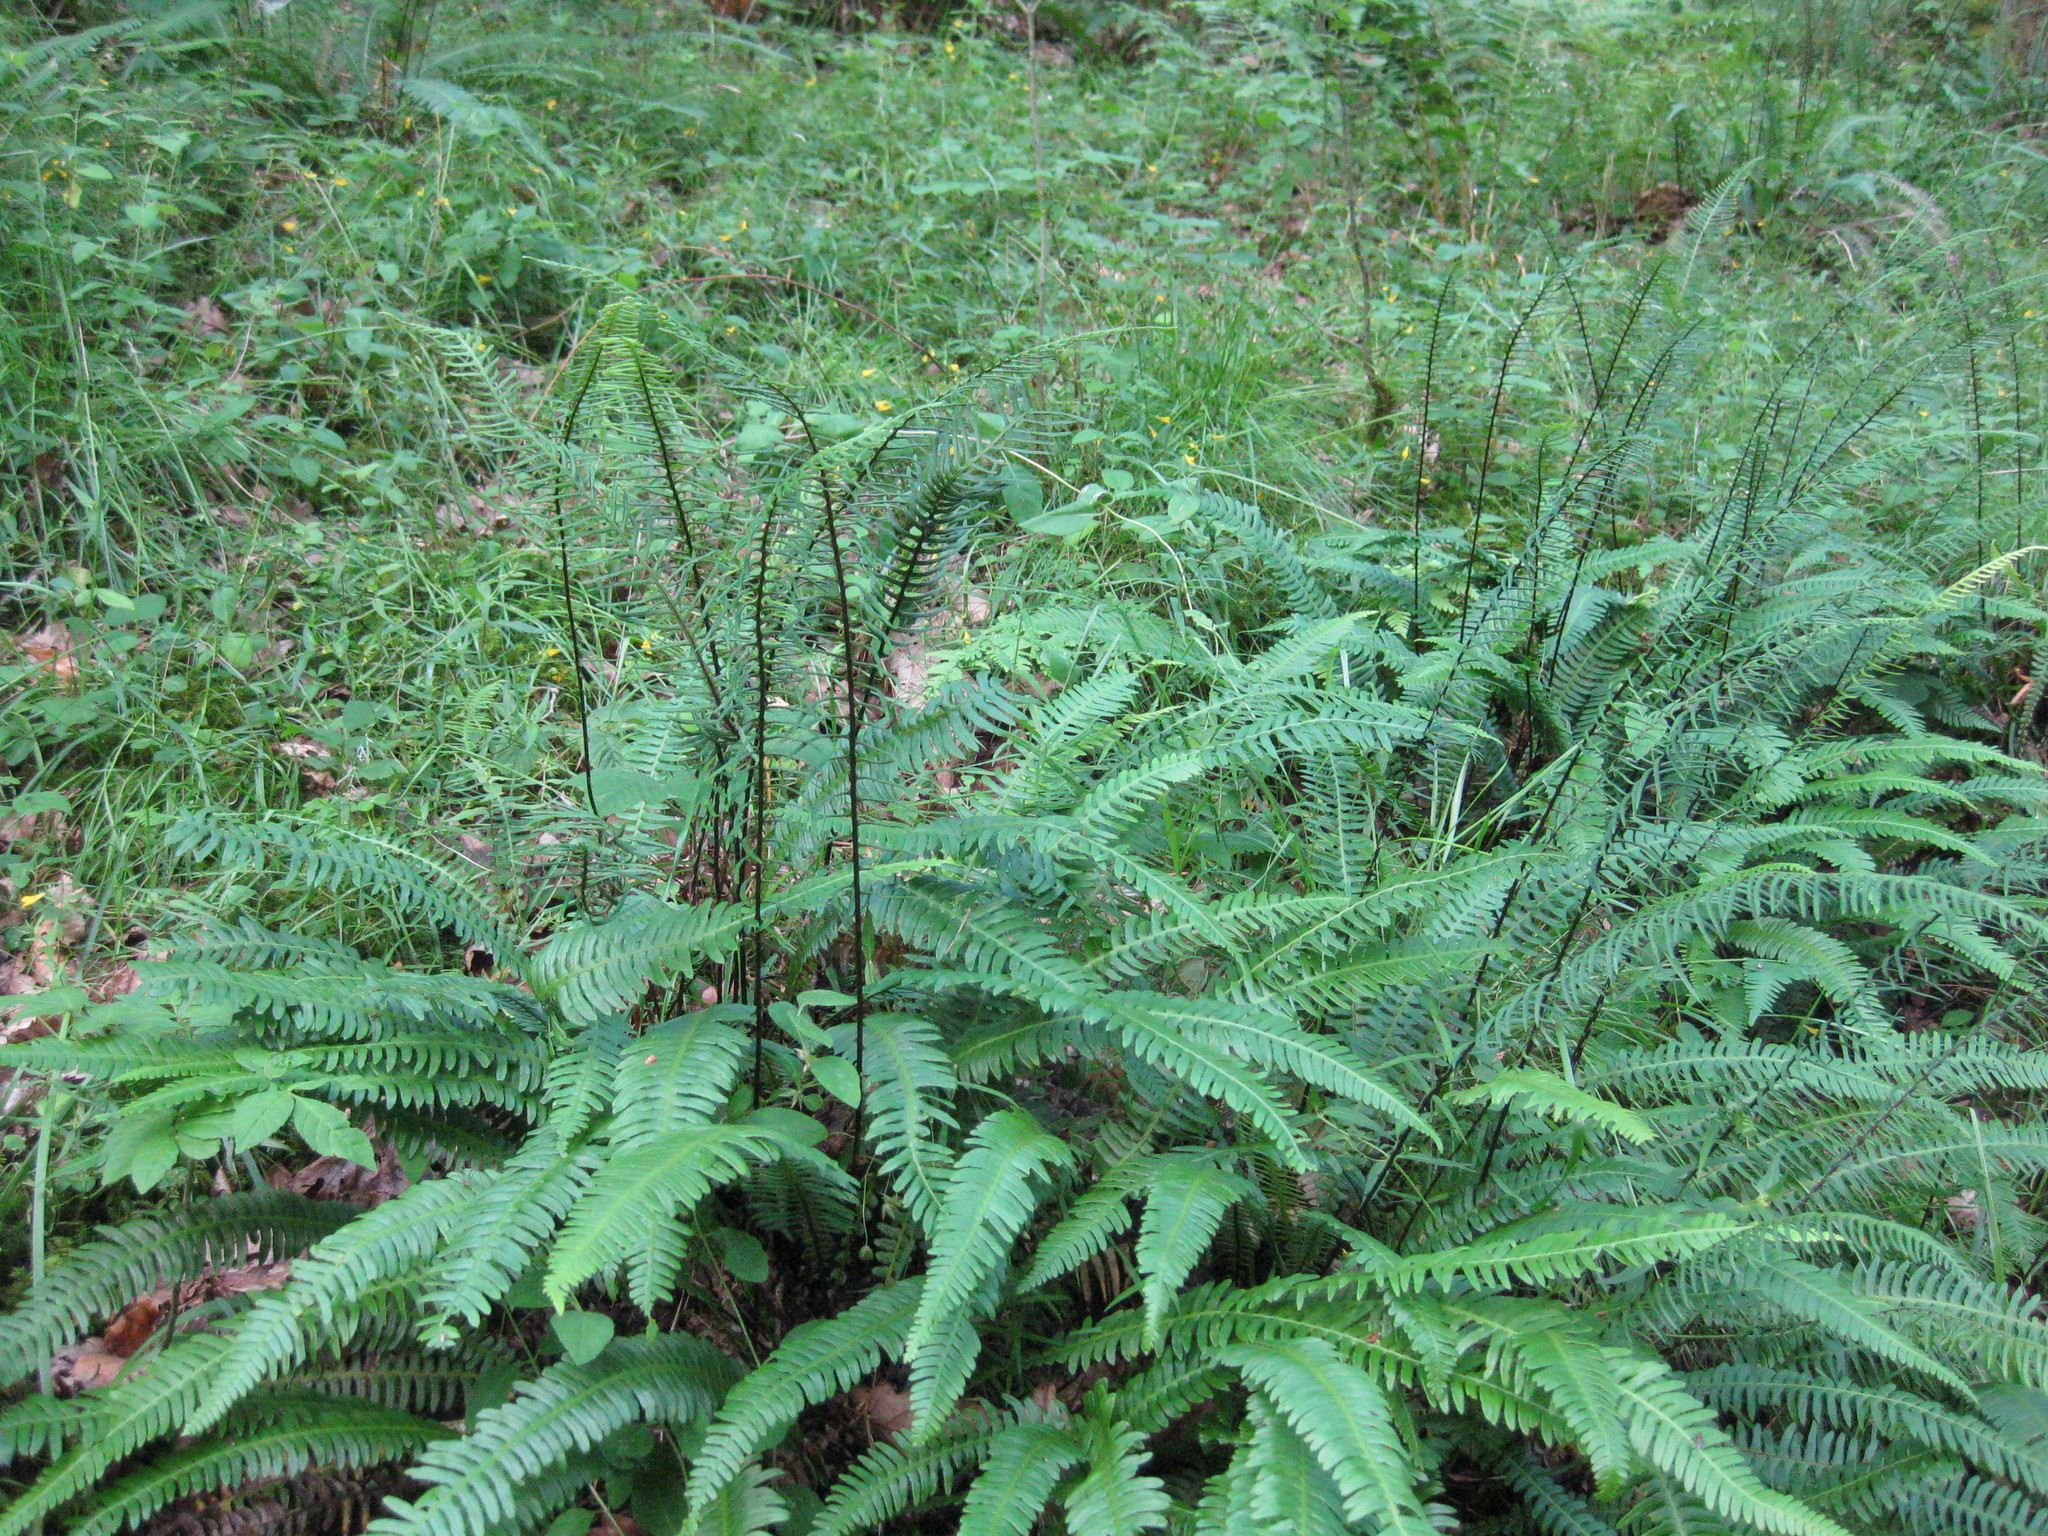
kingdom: Plantae
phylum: Tracheophyta
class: Polypodiopsida
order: Polypodiales
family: Blechnaceae
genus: Struthiopteris
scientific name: Struthiopteris spicant
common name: Deer fern
